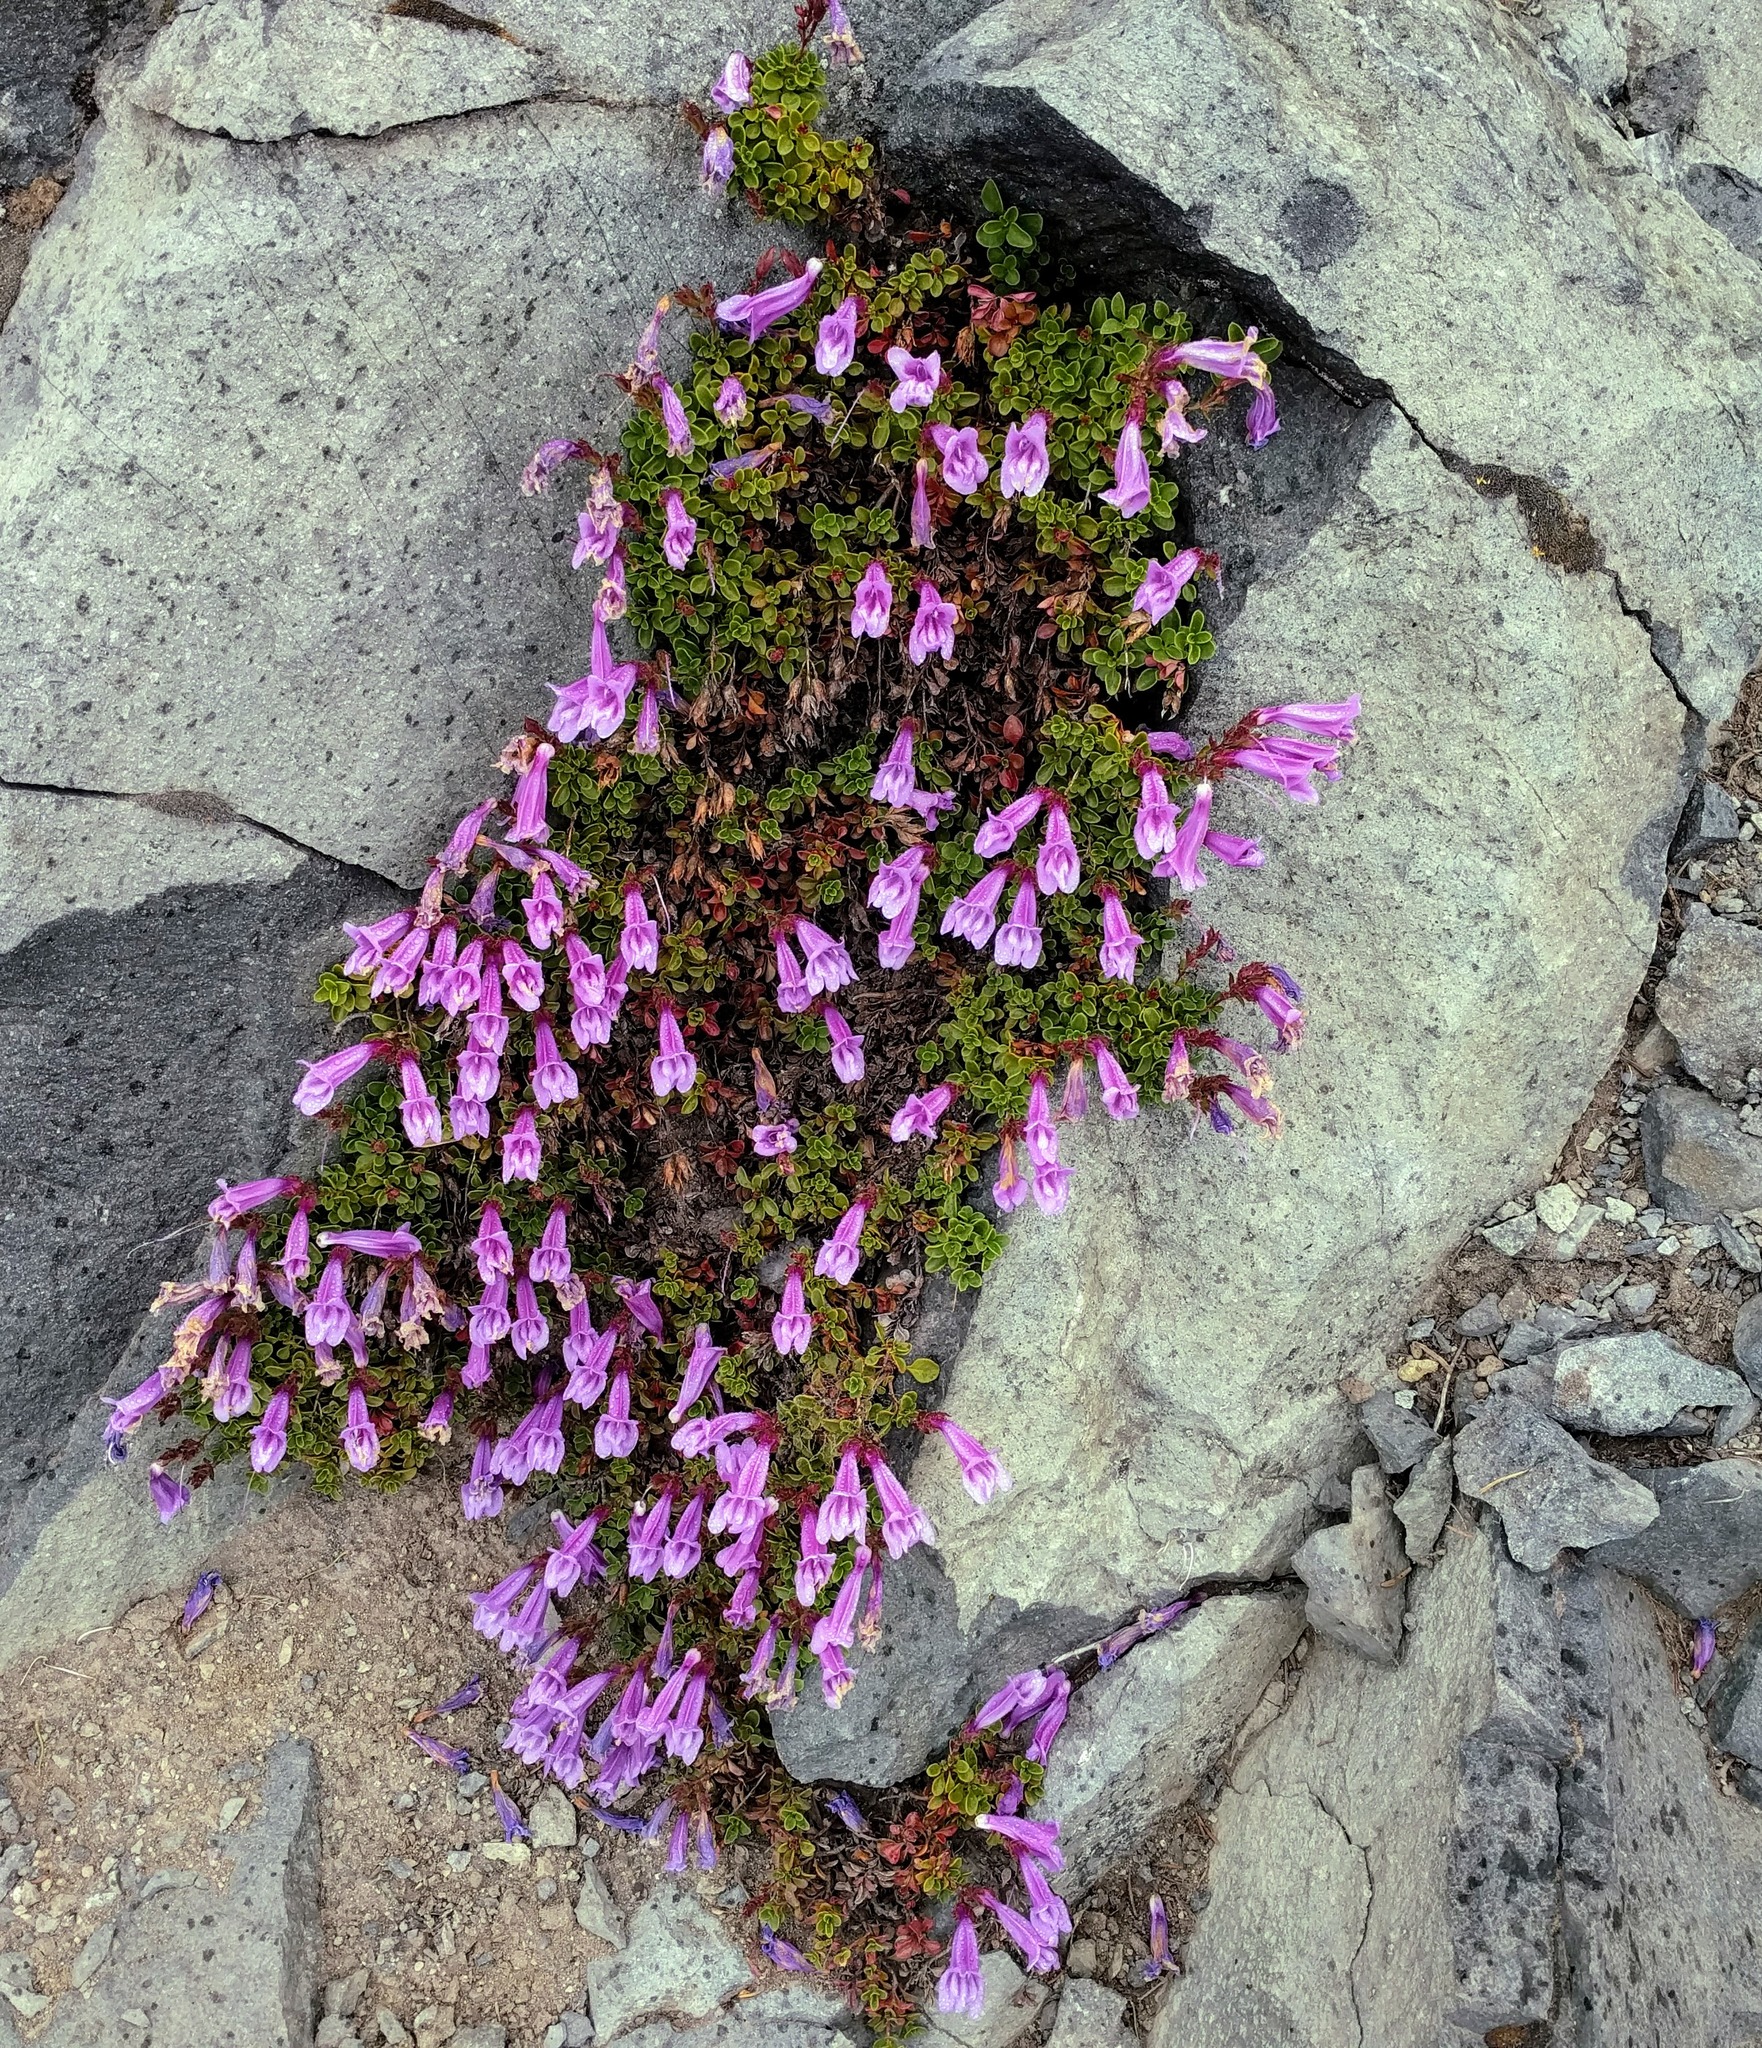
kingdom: Plantae
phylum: Tracheophyta
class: Magnoliopsida
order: Lamiales
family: Plantaginaceae
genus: Penstemon
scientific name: Penstemon davidsonii
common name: Davidson's penstemon
